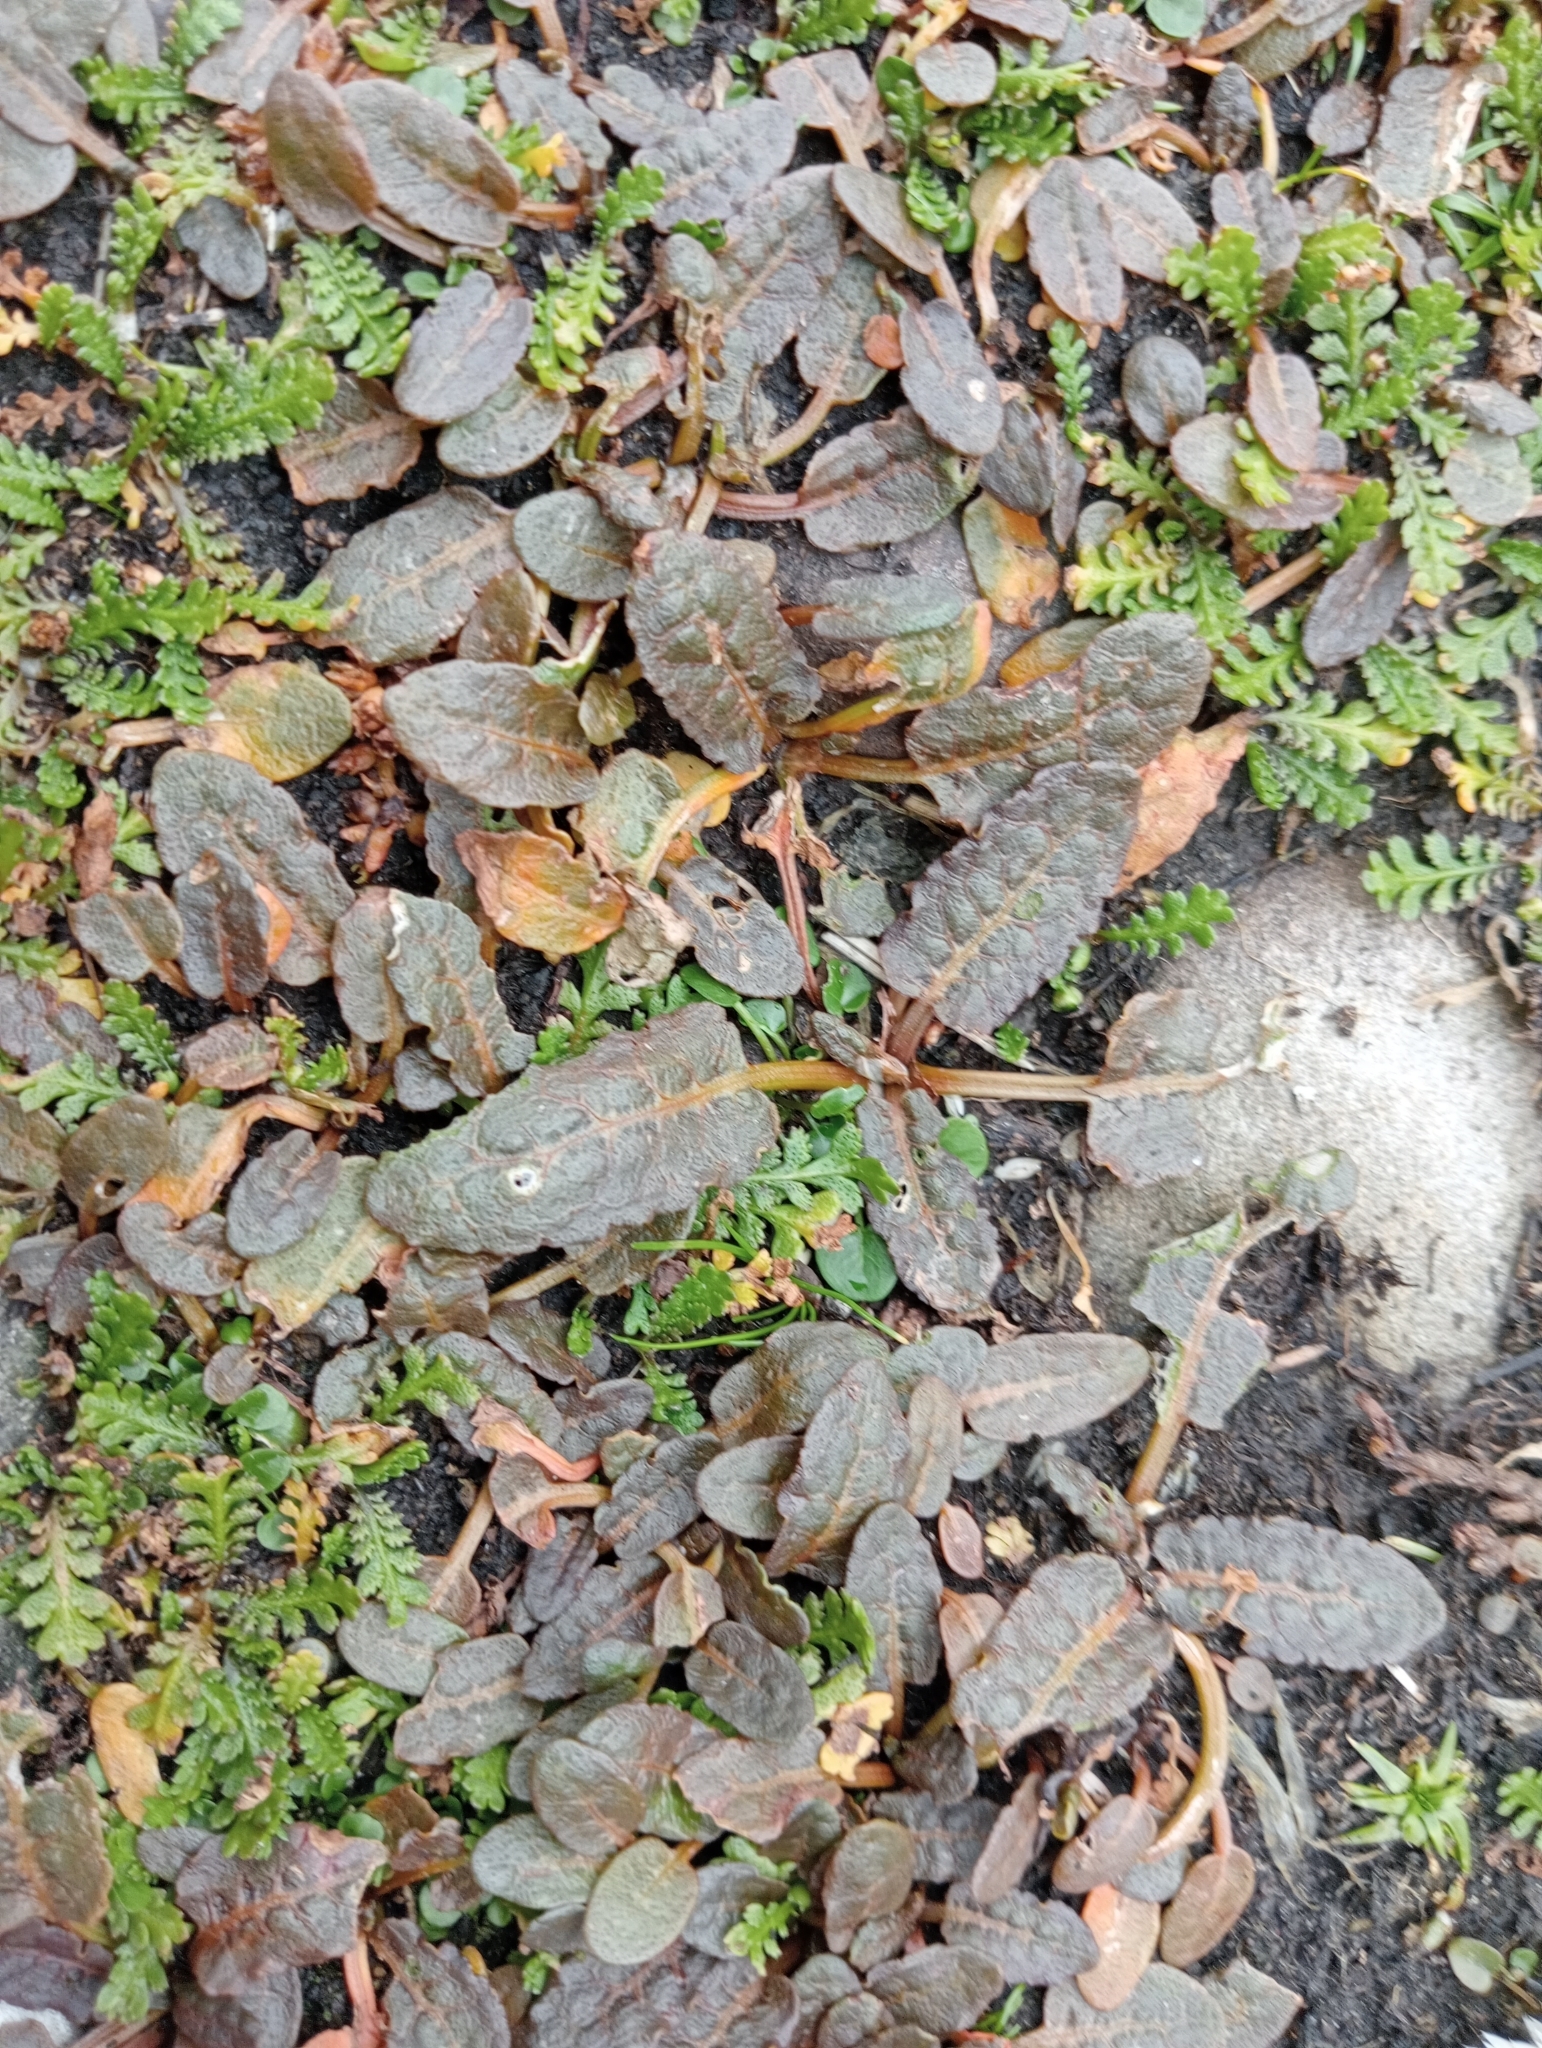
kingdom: Plantae
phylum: Tracheophyta
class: Magnoliopsida
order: Caryophyllales
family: Polygonaceae
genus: Rumex
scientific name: Rumex neglectus
